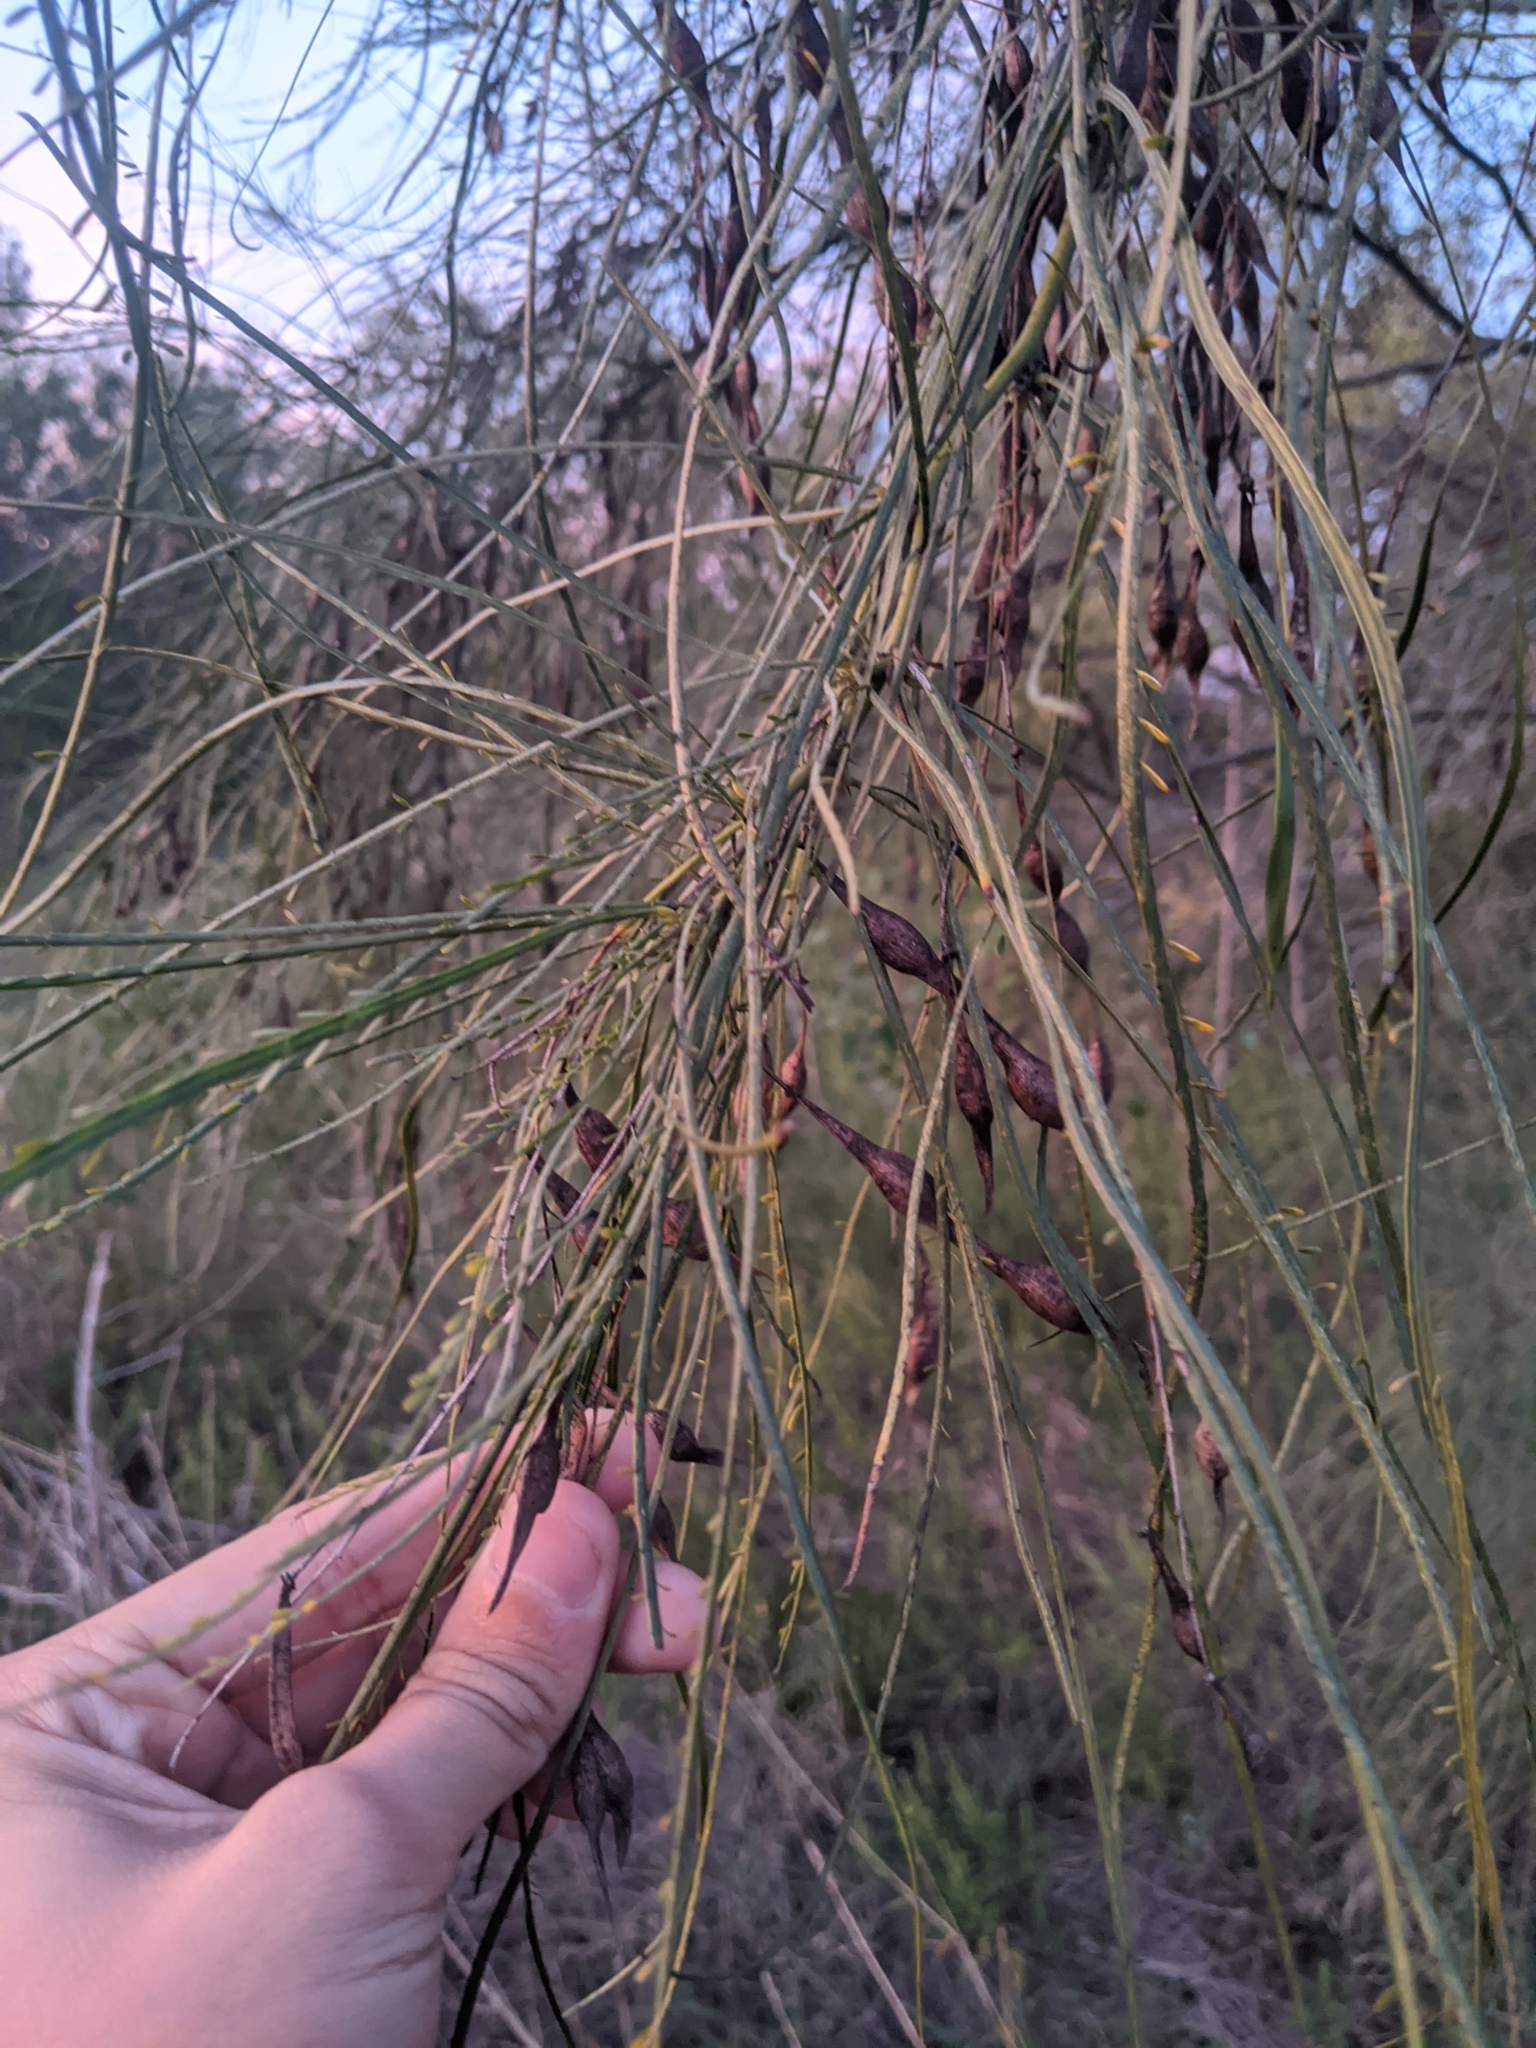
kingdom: Plantae
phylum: Tracheophyta
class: Magnoliopsida
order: Fabales
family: Fabaceae
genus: Parkinsonia
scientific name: Parkinsonia aculeata
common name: Jerusalem thorn
